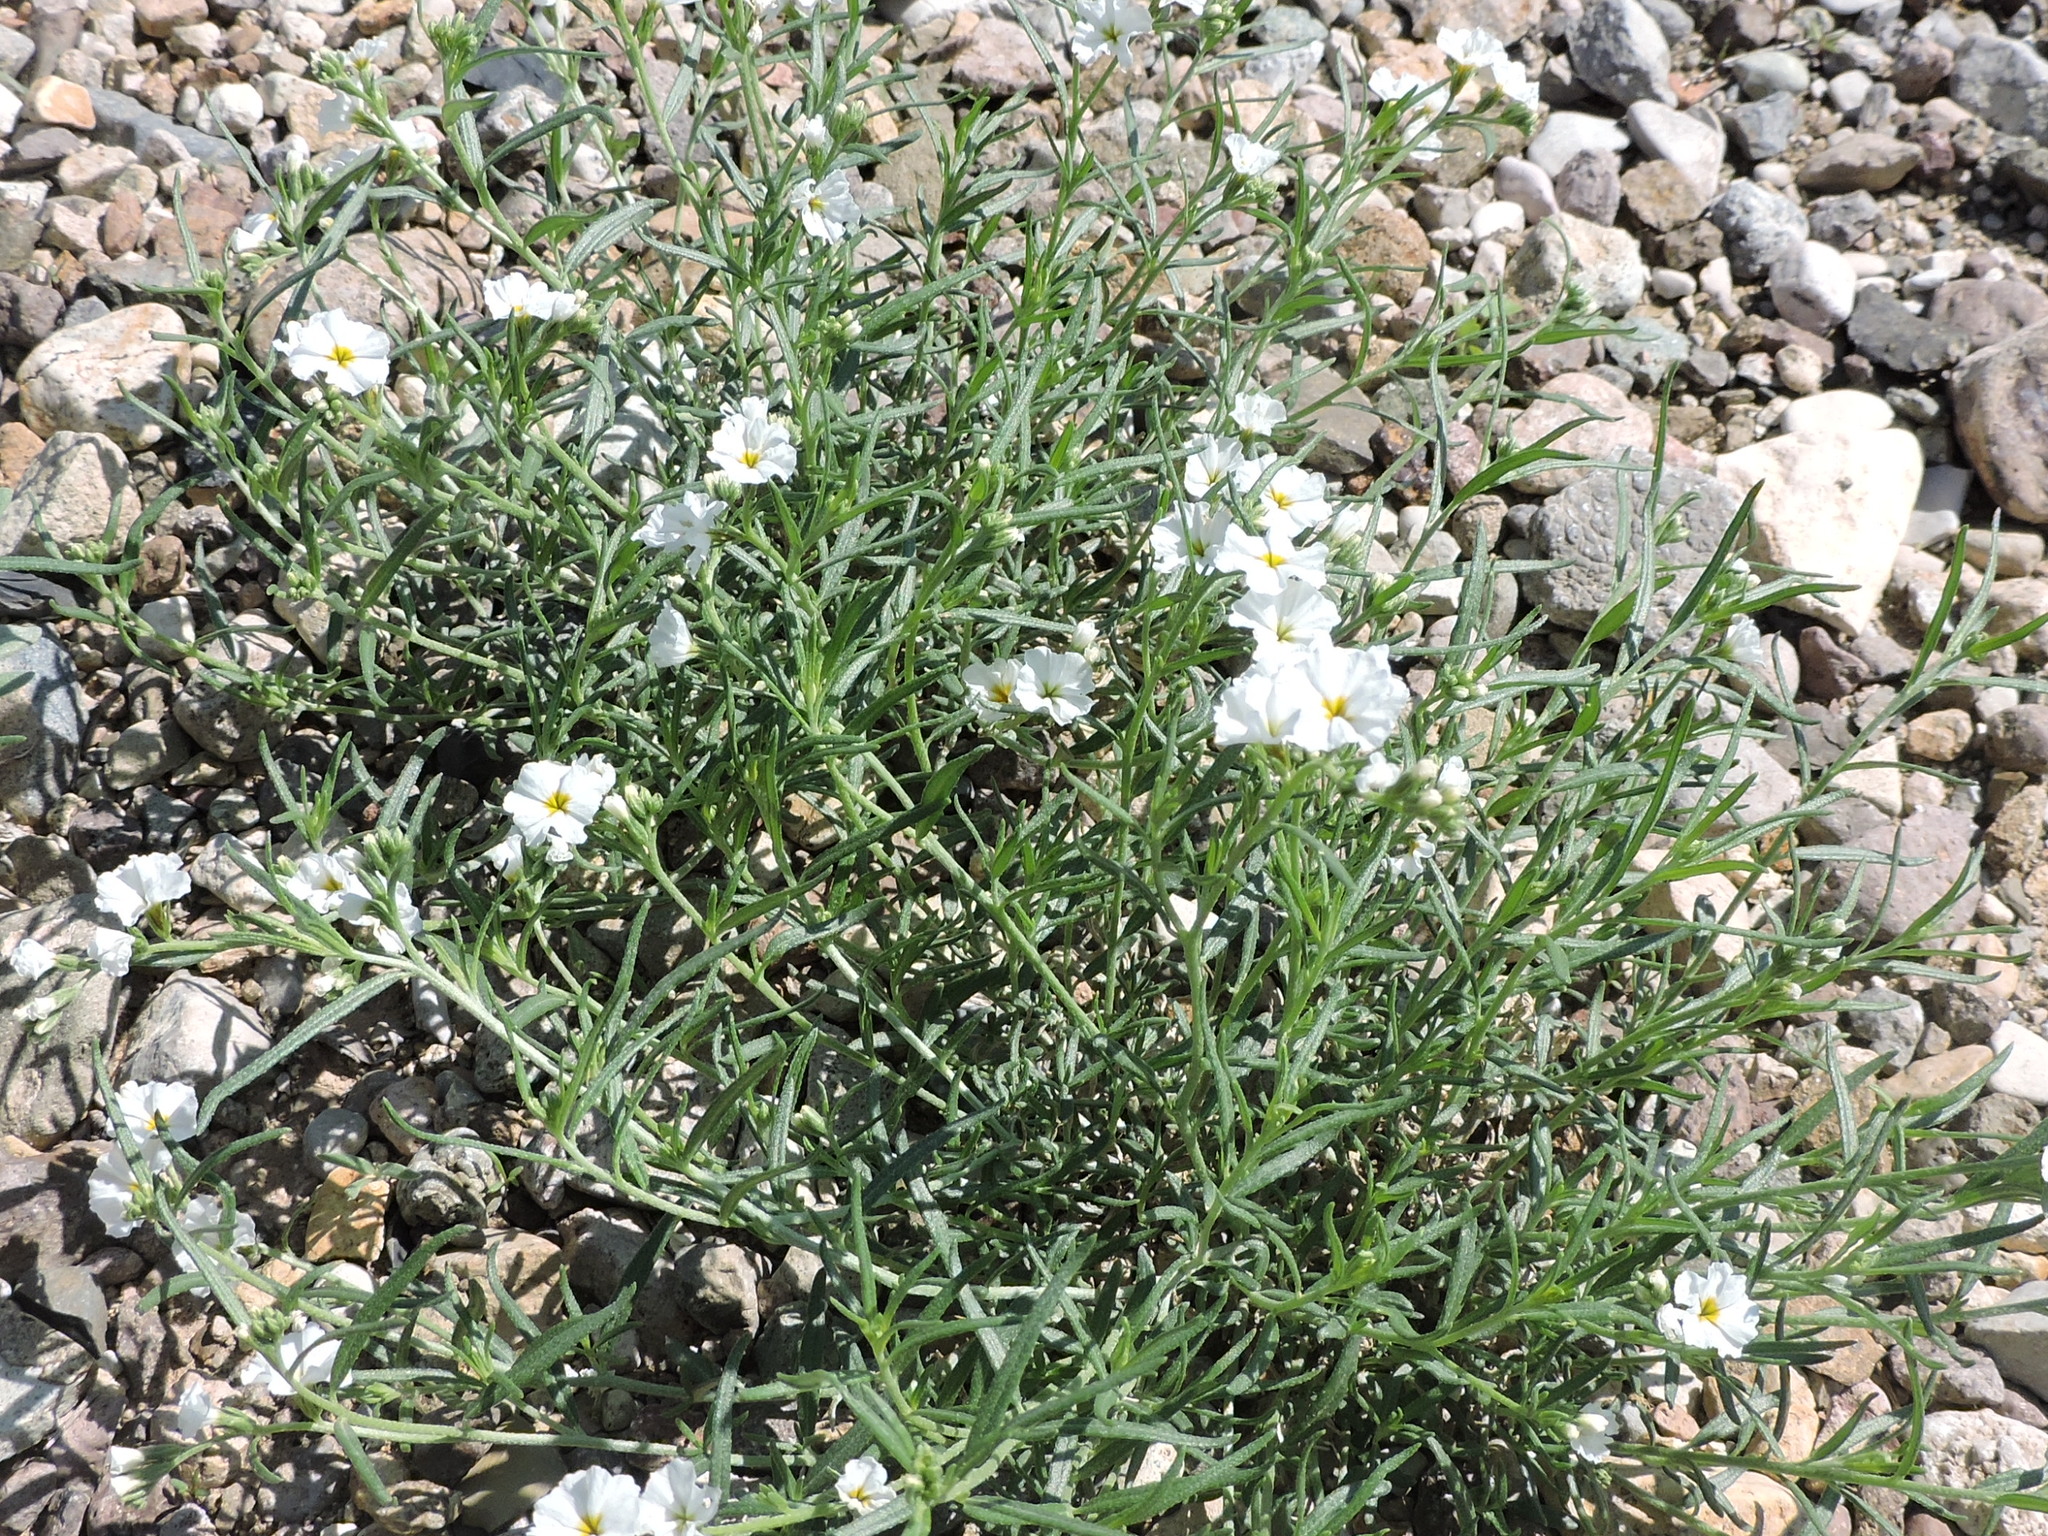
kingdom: Plantae
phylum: Tracheophyta
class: Magnoliopsida
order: Boraginales
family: Heliotropiaceae
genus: Euploca
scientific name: Euploca greggii
